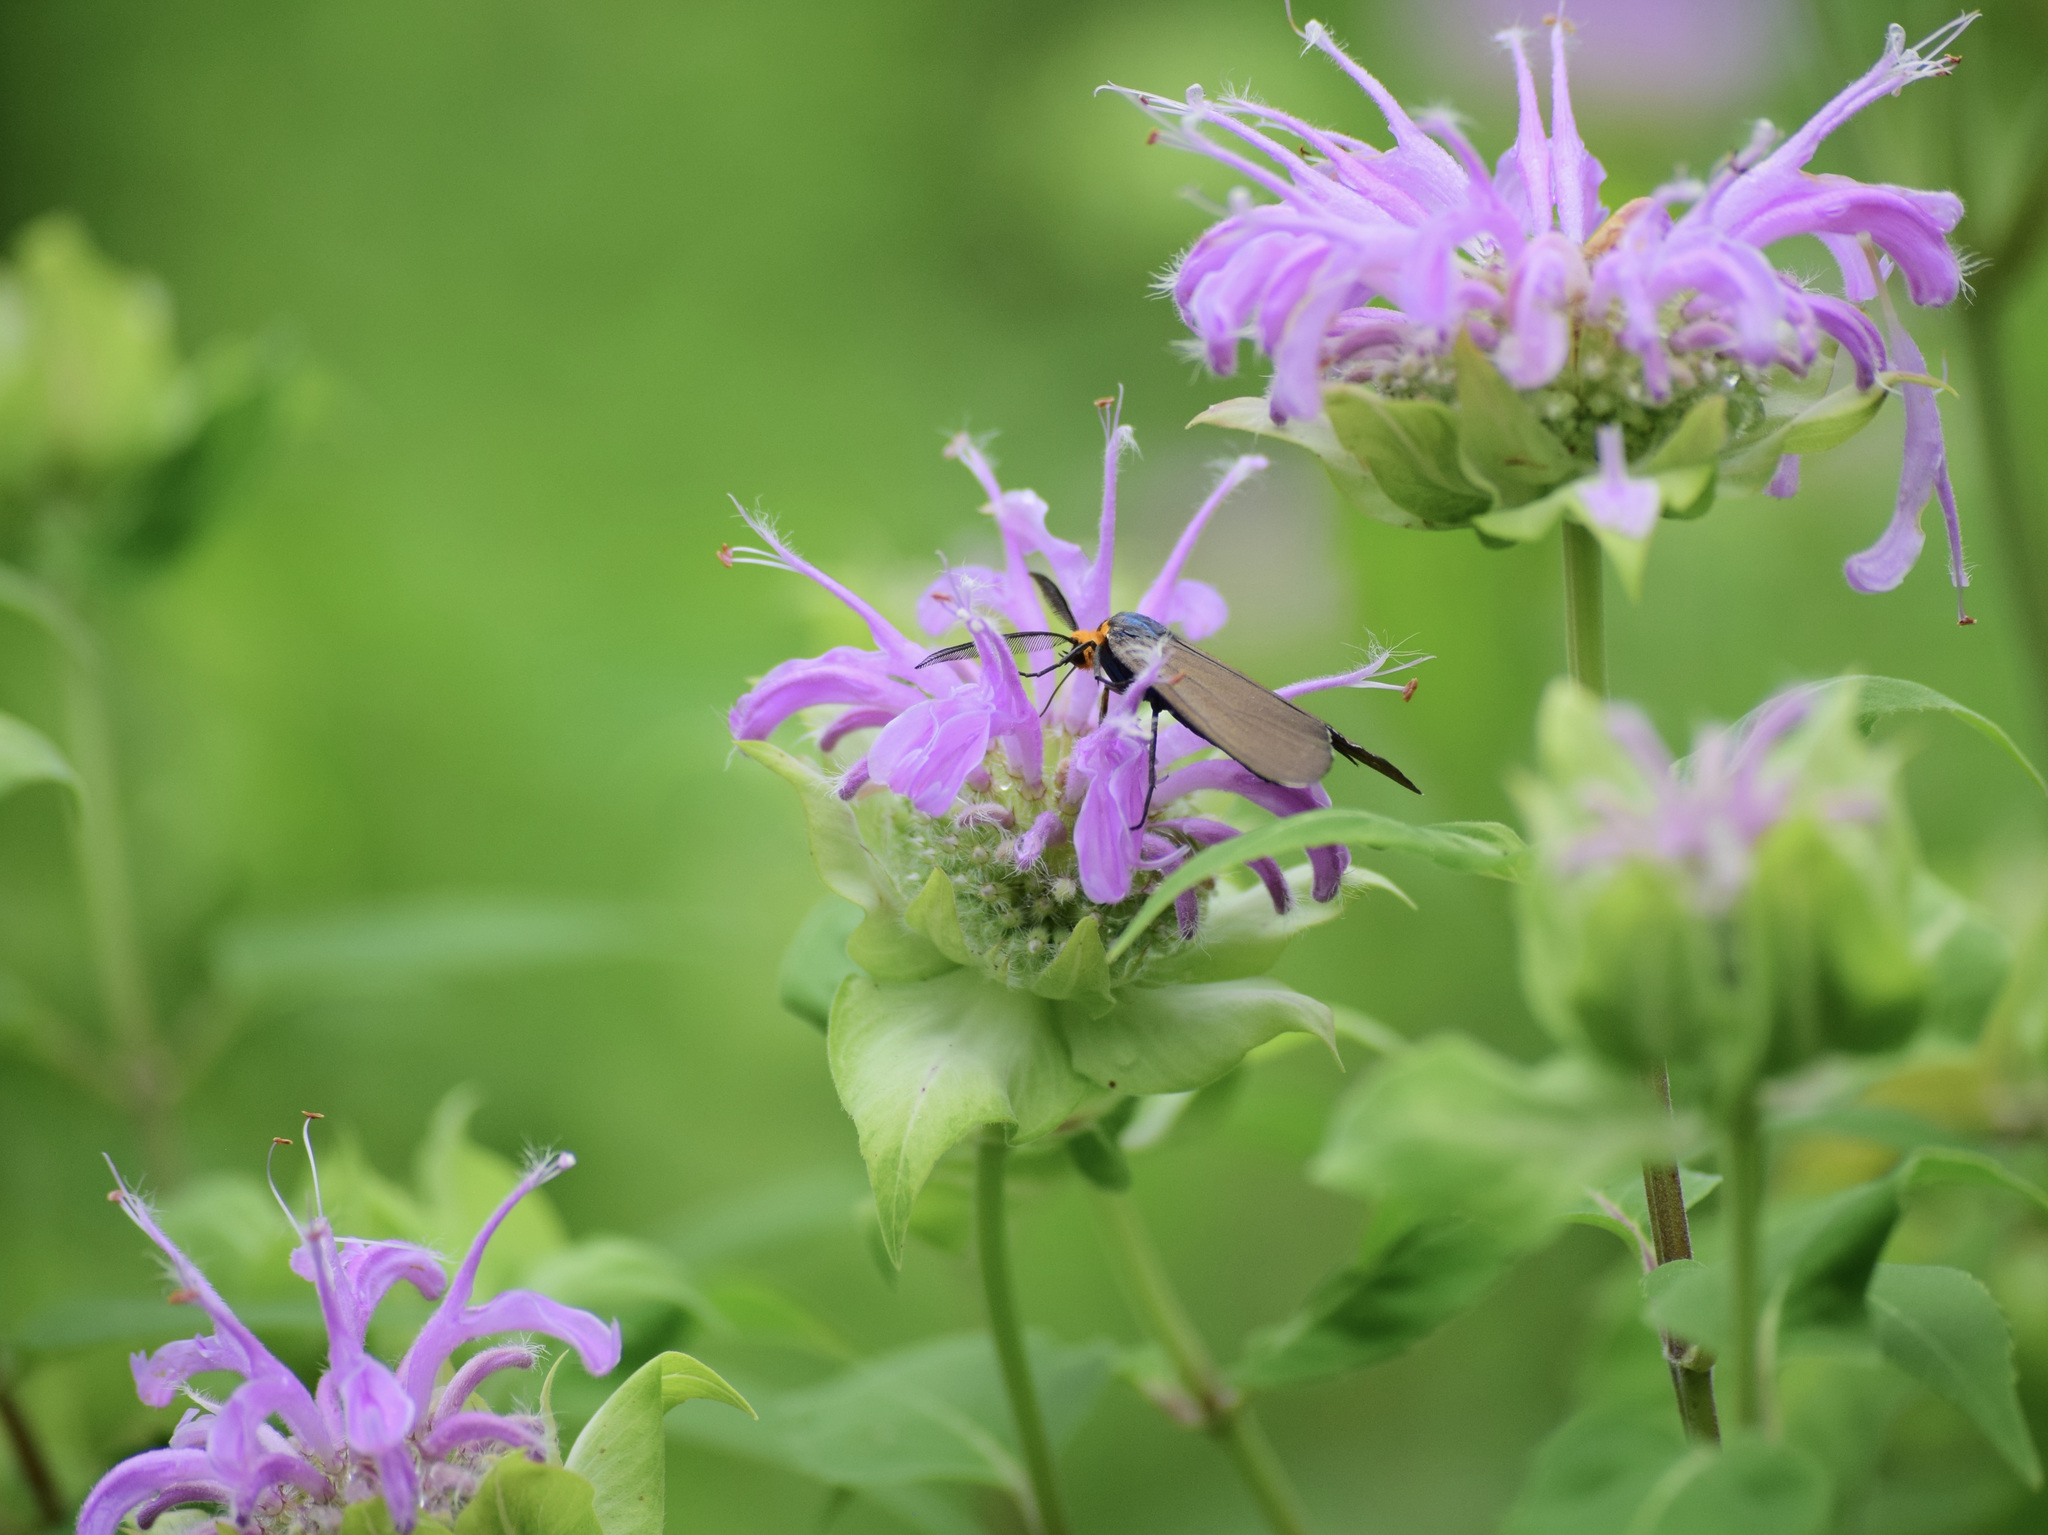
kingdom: Animalia
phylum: Arthropoda
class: Insecta
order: Lepidoptera
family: Erebidae
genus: Ctenucha
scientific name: Ctenucha virginica
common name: Virginia ctenucha moth
